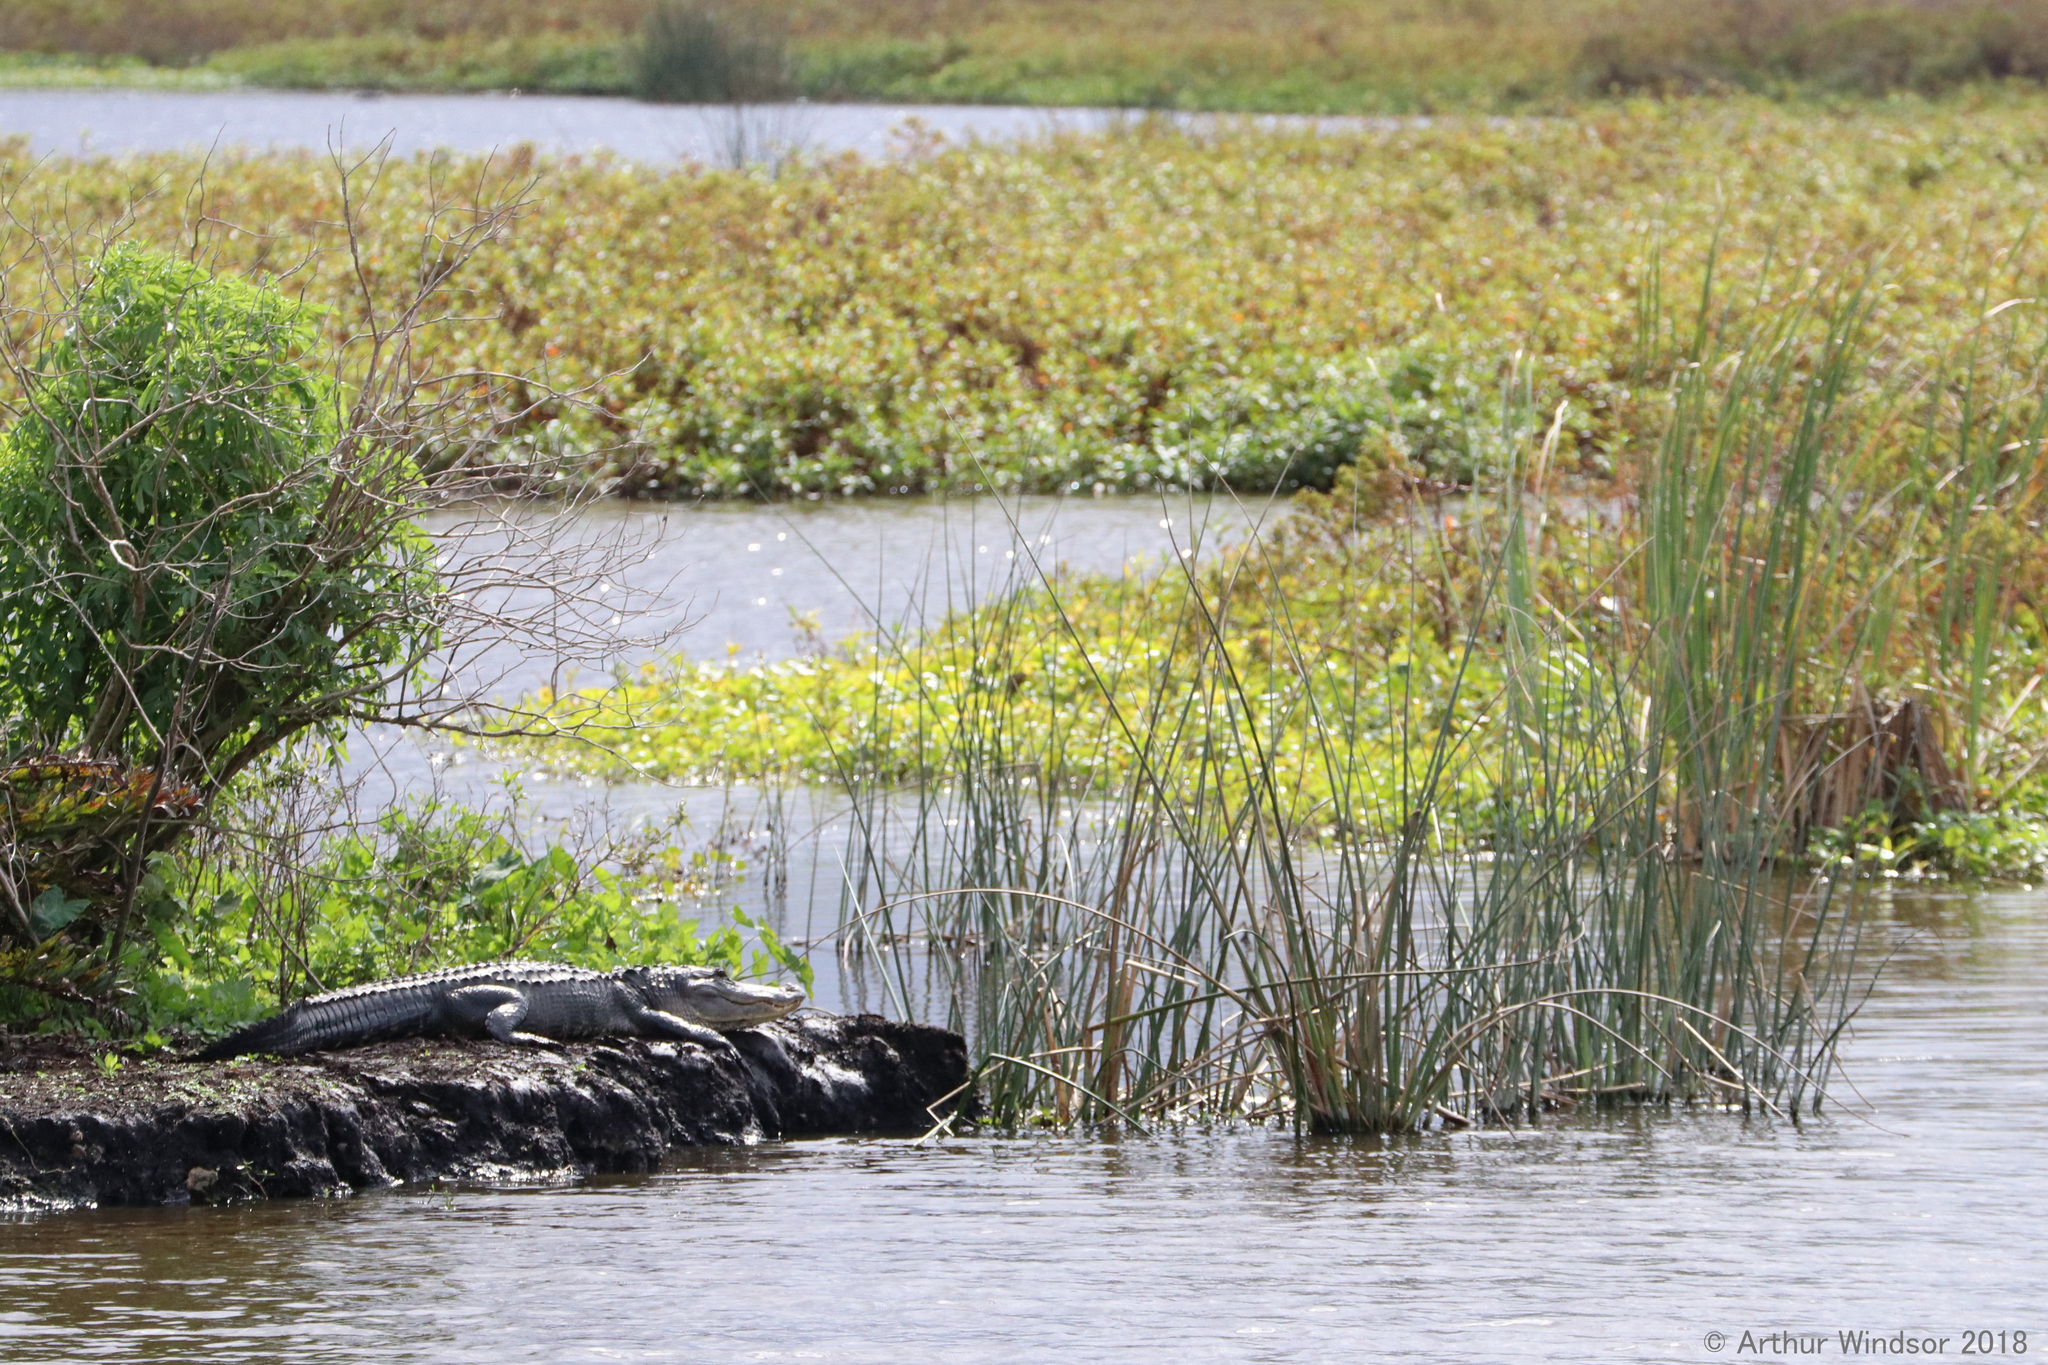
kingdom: Animalia
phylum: Chordata
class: Crocodylia
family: Alligatoridae
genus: Alligator
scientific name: Alligator mississippiensis
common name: American alligator
